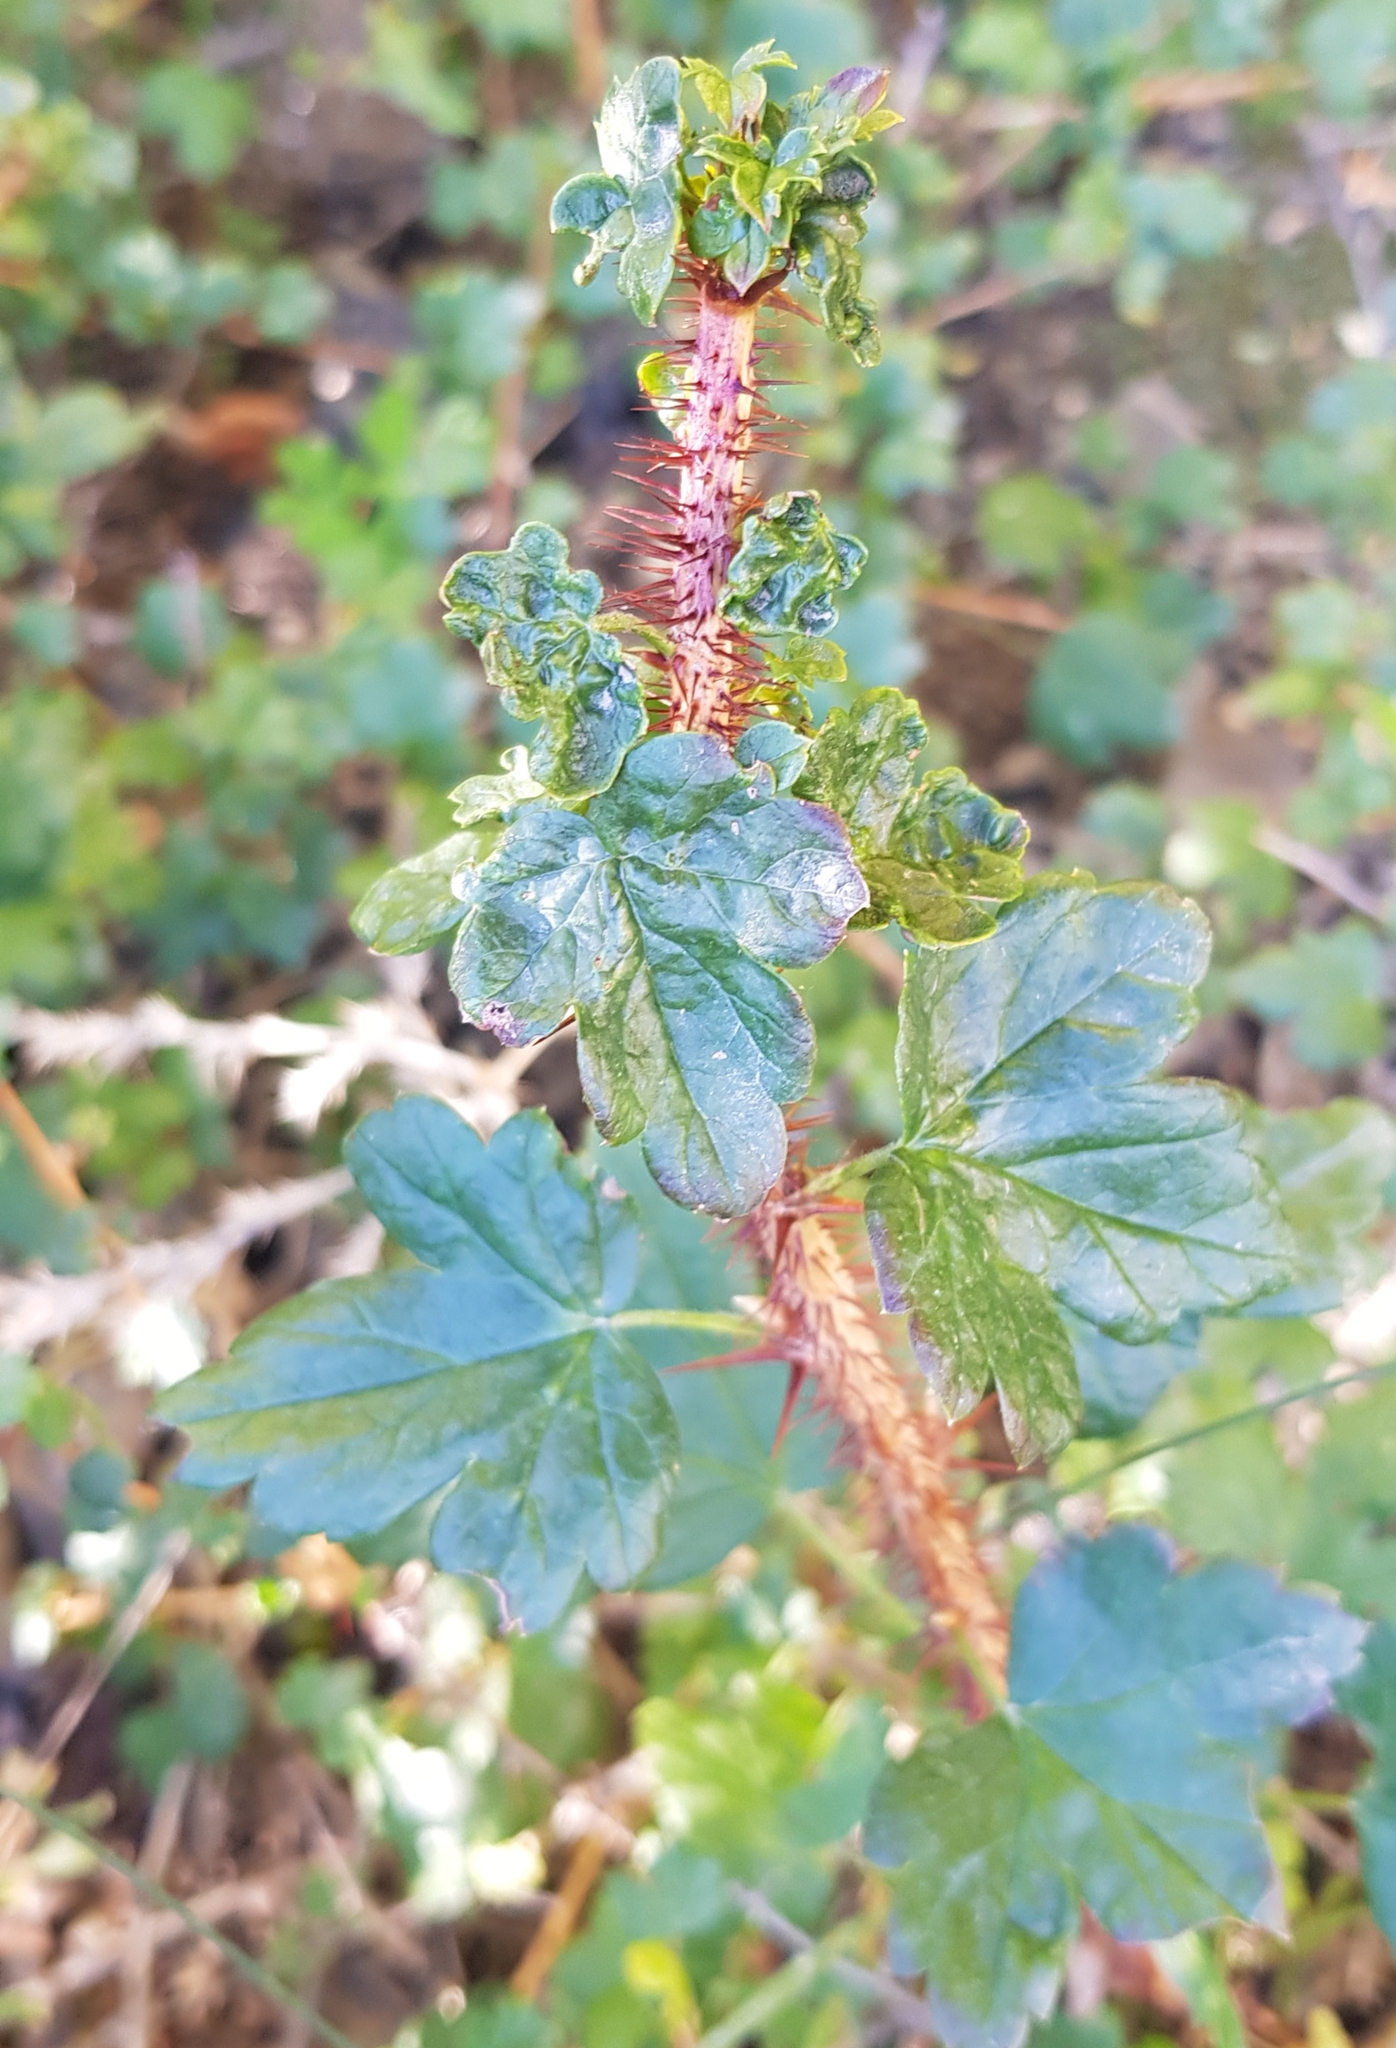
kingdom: Plantae
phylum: Tracheophyta
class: Magnoliopsida
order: Saxifragales
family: Grossulariaceae
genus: Ribes
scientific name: Ribes aciculare
